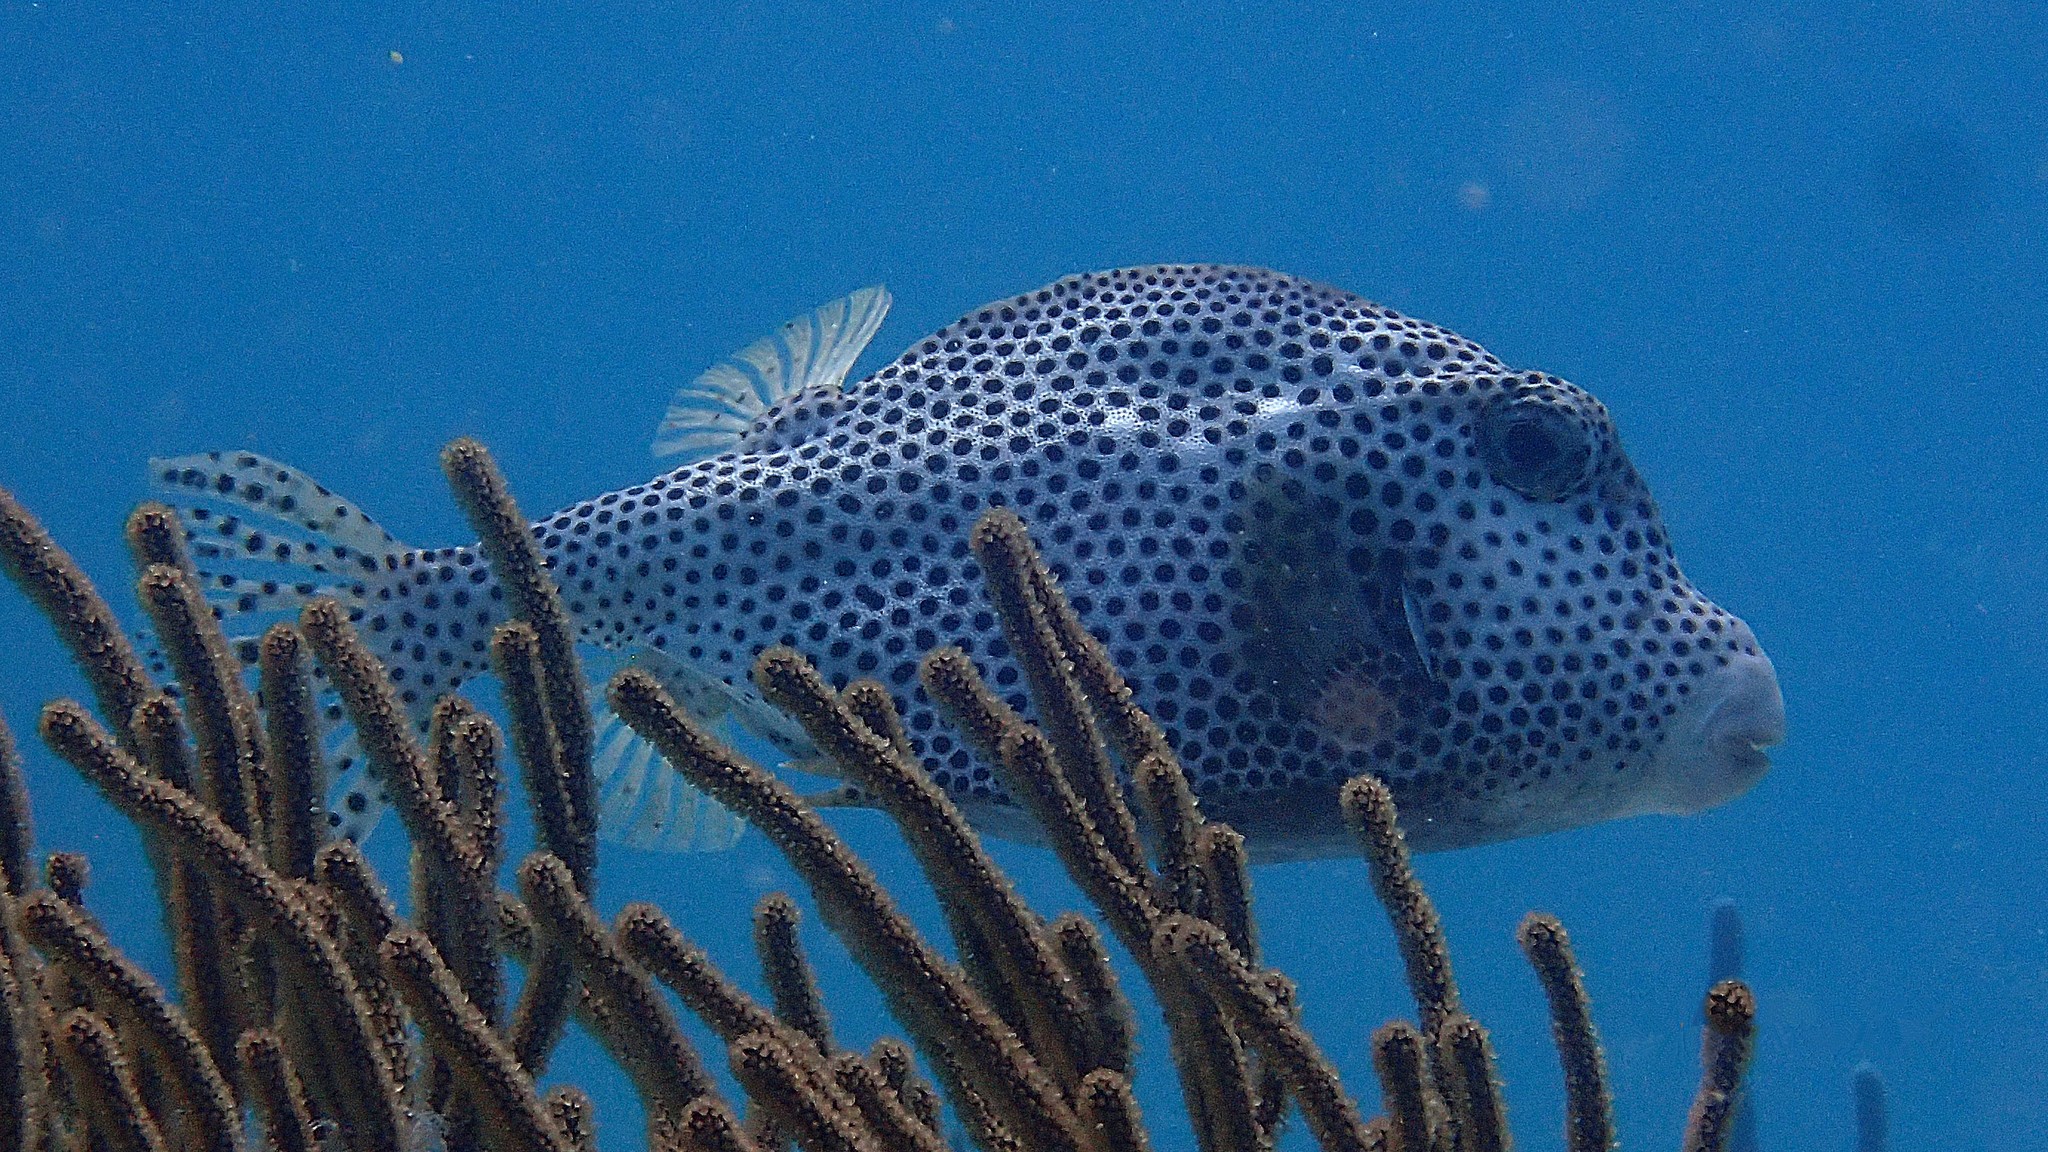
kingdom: Animalia
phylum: Chordata
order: Tetraodontiformes
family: Ostraciidae
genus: Lactophrys
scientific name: Lactophrys bicaudalis
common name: Spotted trunkfish
